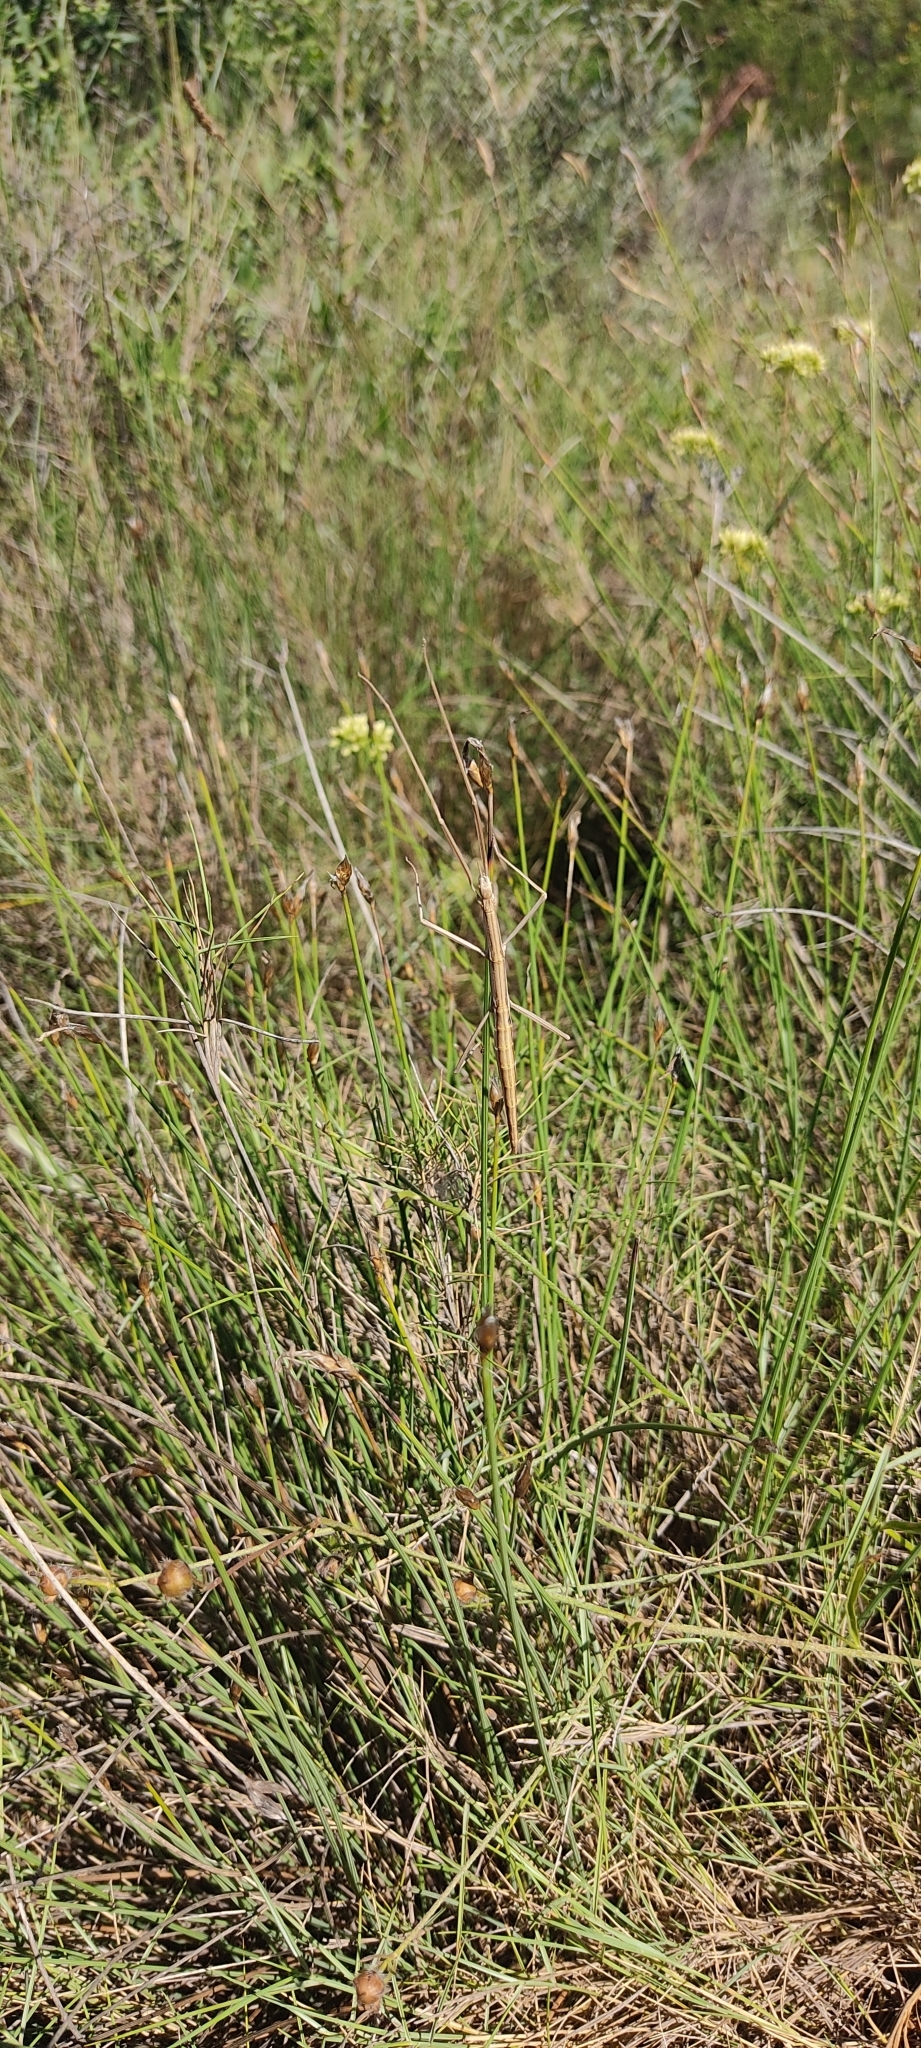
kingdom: Animalia
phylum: Arthropoda
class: Insecta
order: Phasmida
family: Bacillidae
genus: Pijnackeria
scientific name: Pijnackeria masettii
